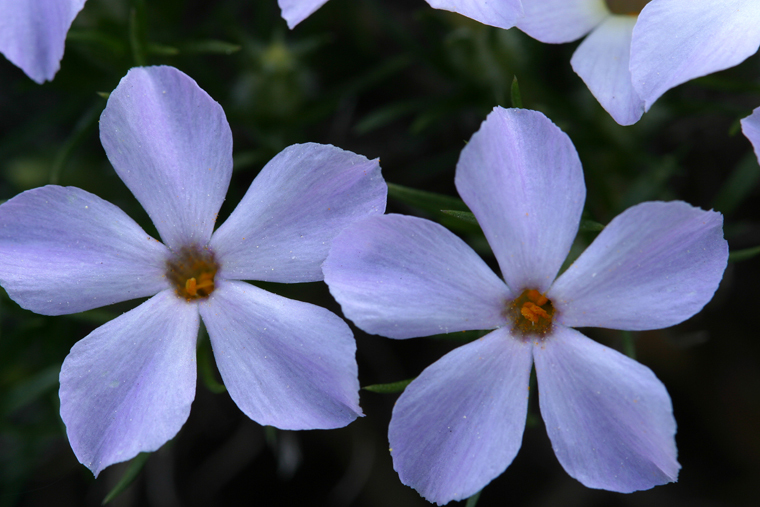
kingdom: Plantae
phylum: Tracheophyta
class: Magnoliopsida
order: Ericales
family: Polemoniaceae
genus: Phlox
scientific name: Phlox diffusa
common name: Mat phlox
